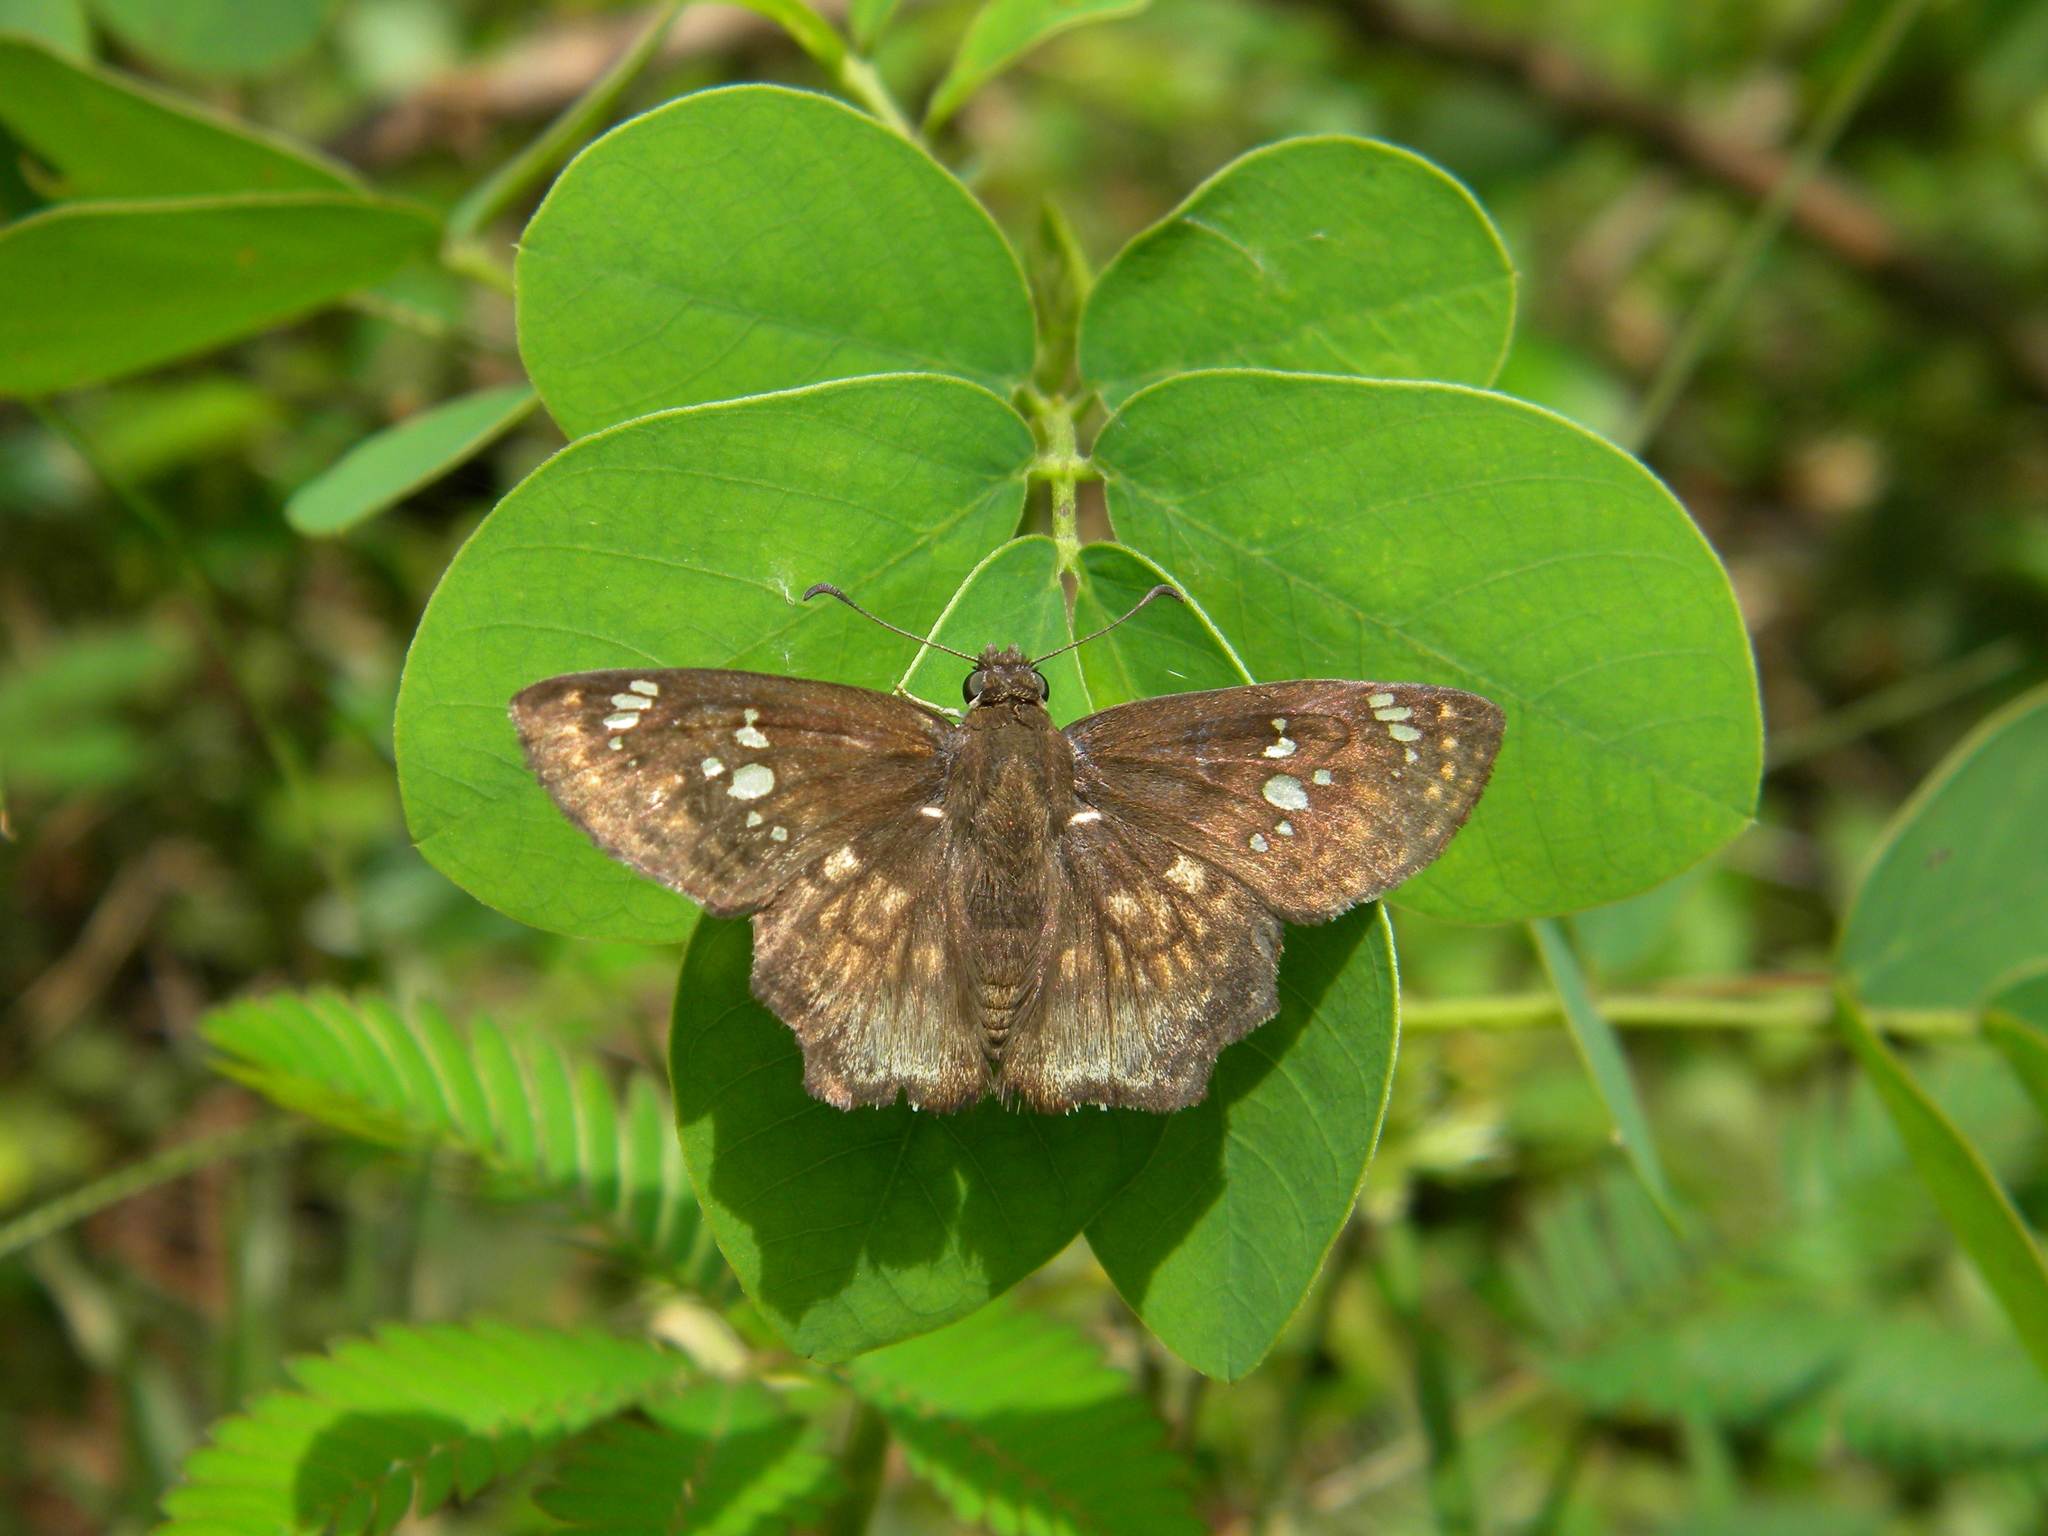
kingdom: Animalia
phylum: Arthropoda
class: Insecta
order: Lepidoptera
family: Hesperiidae
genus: Caprona
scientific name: Caprona ransonnettii
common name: Golden angle
